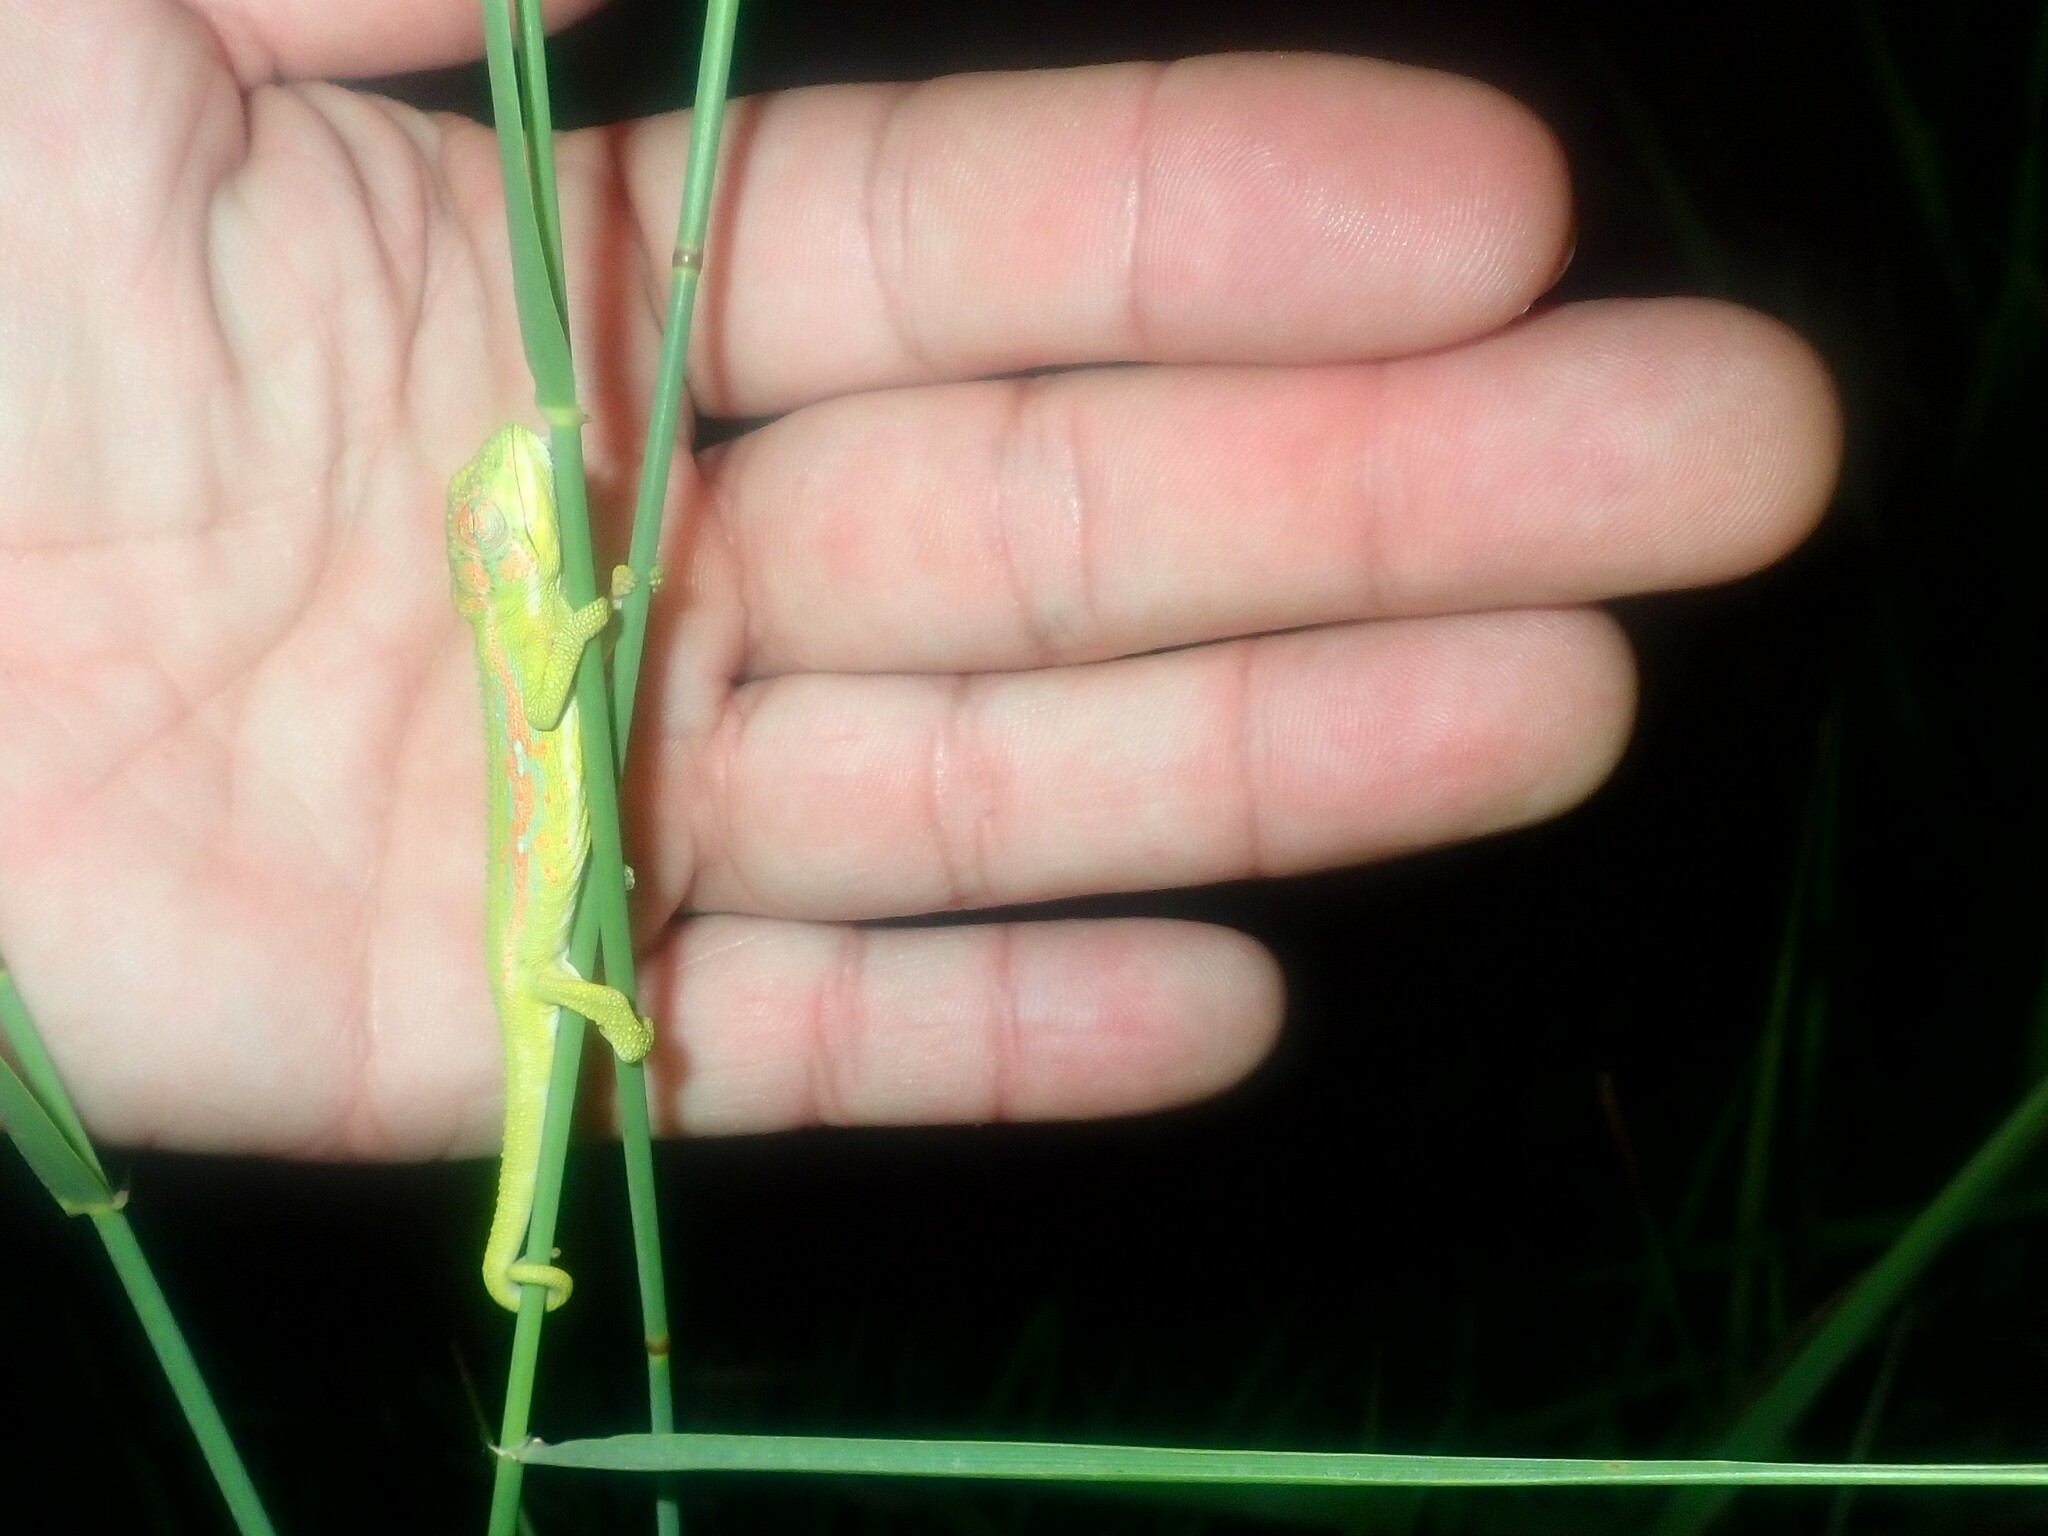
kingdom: Animalia
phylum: Chordata
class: Squamata
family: Chamaeleonidae
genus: Bradypodion
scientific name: Bradypodion pumilum
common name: Cape dwarf chameleon
